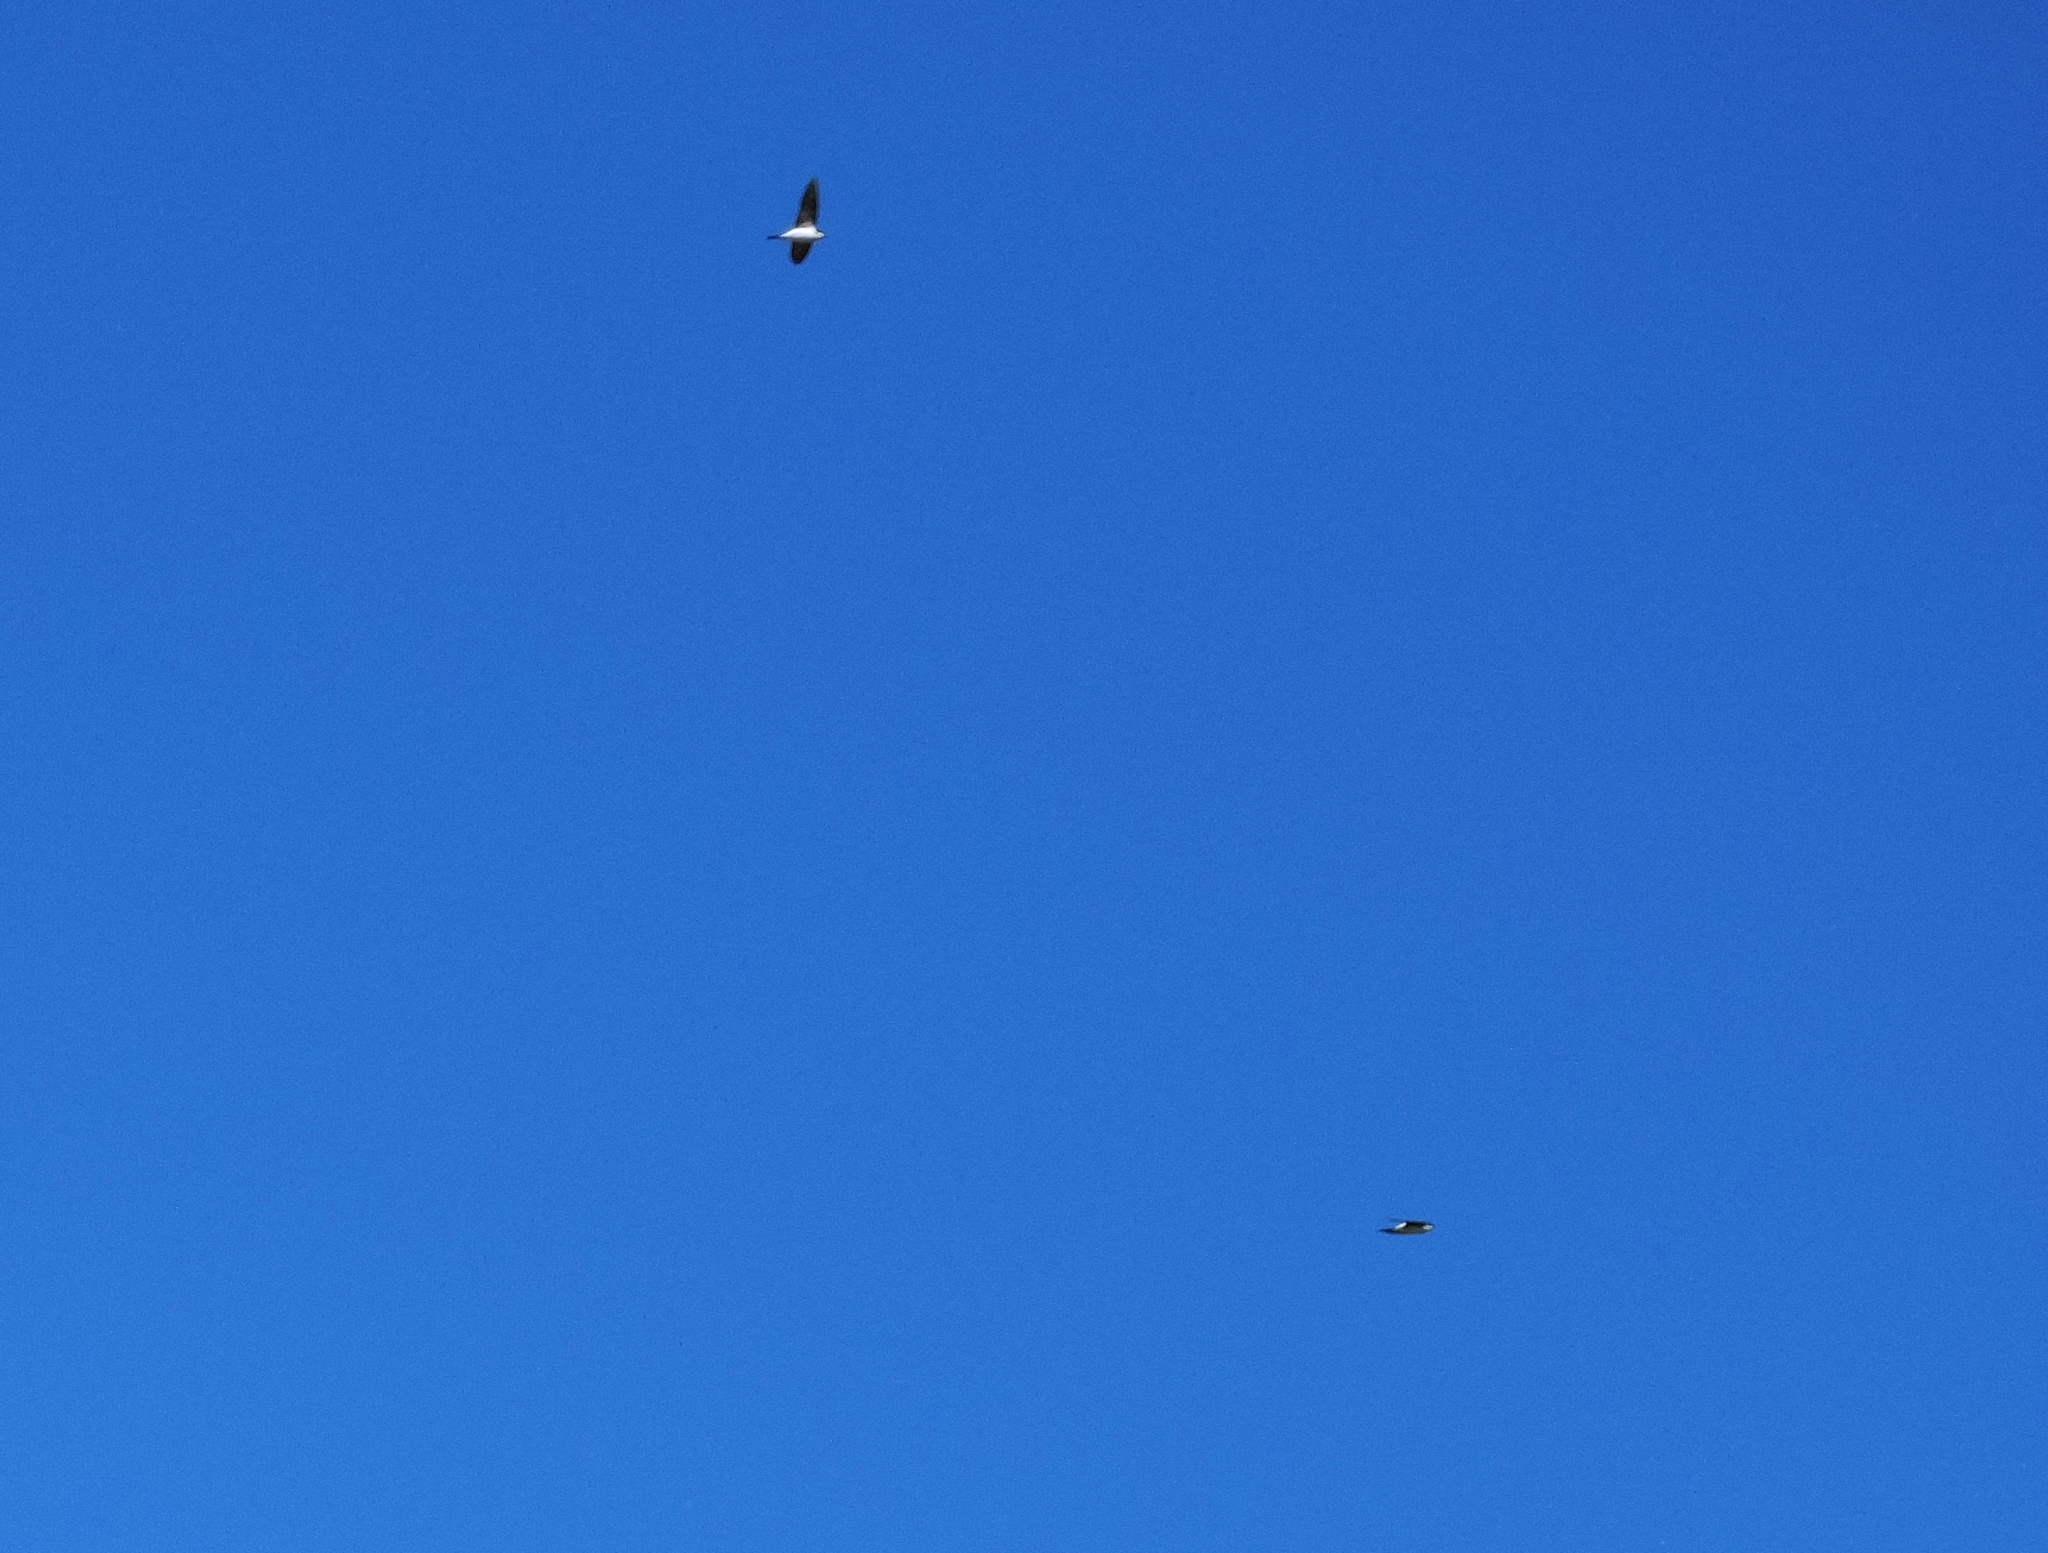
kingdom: Animalia
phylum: Chordata
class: Aves
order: Passeriformes
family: Hirundinidae
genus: Delichon
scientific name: Delichon urbicum
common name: Common house martin
